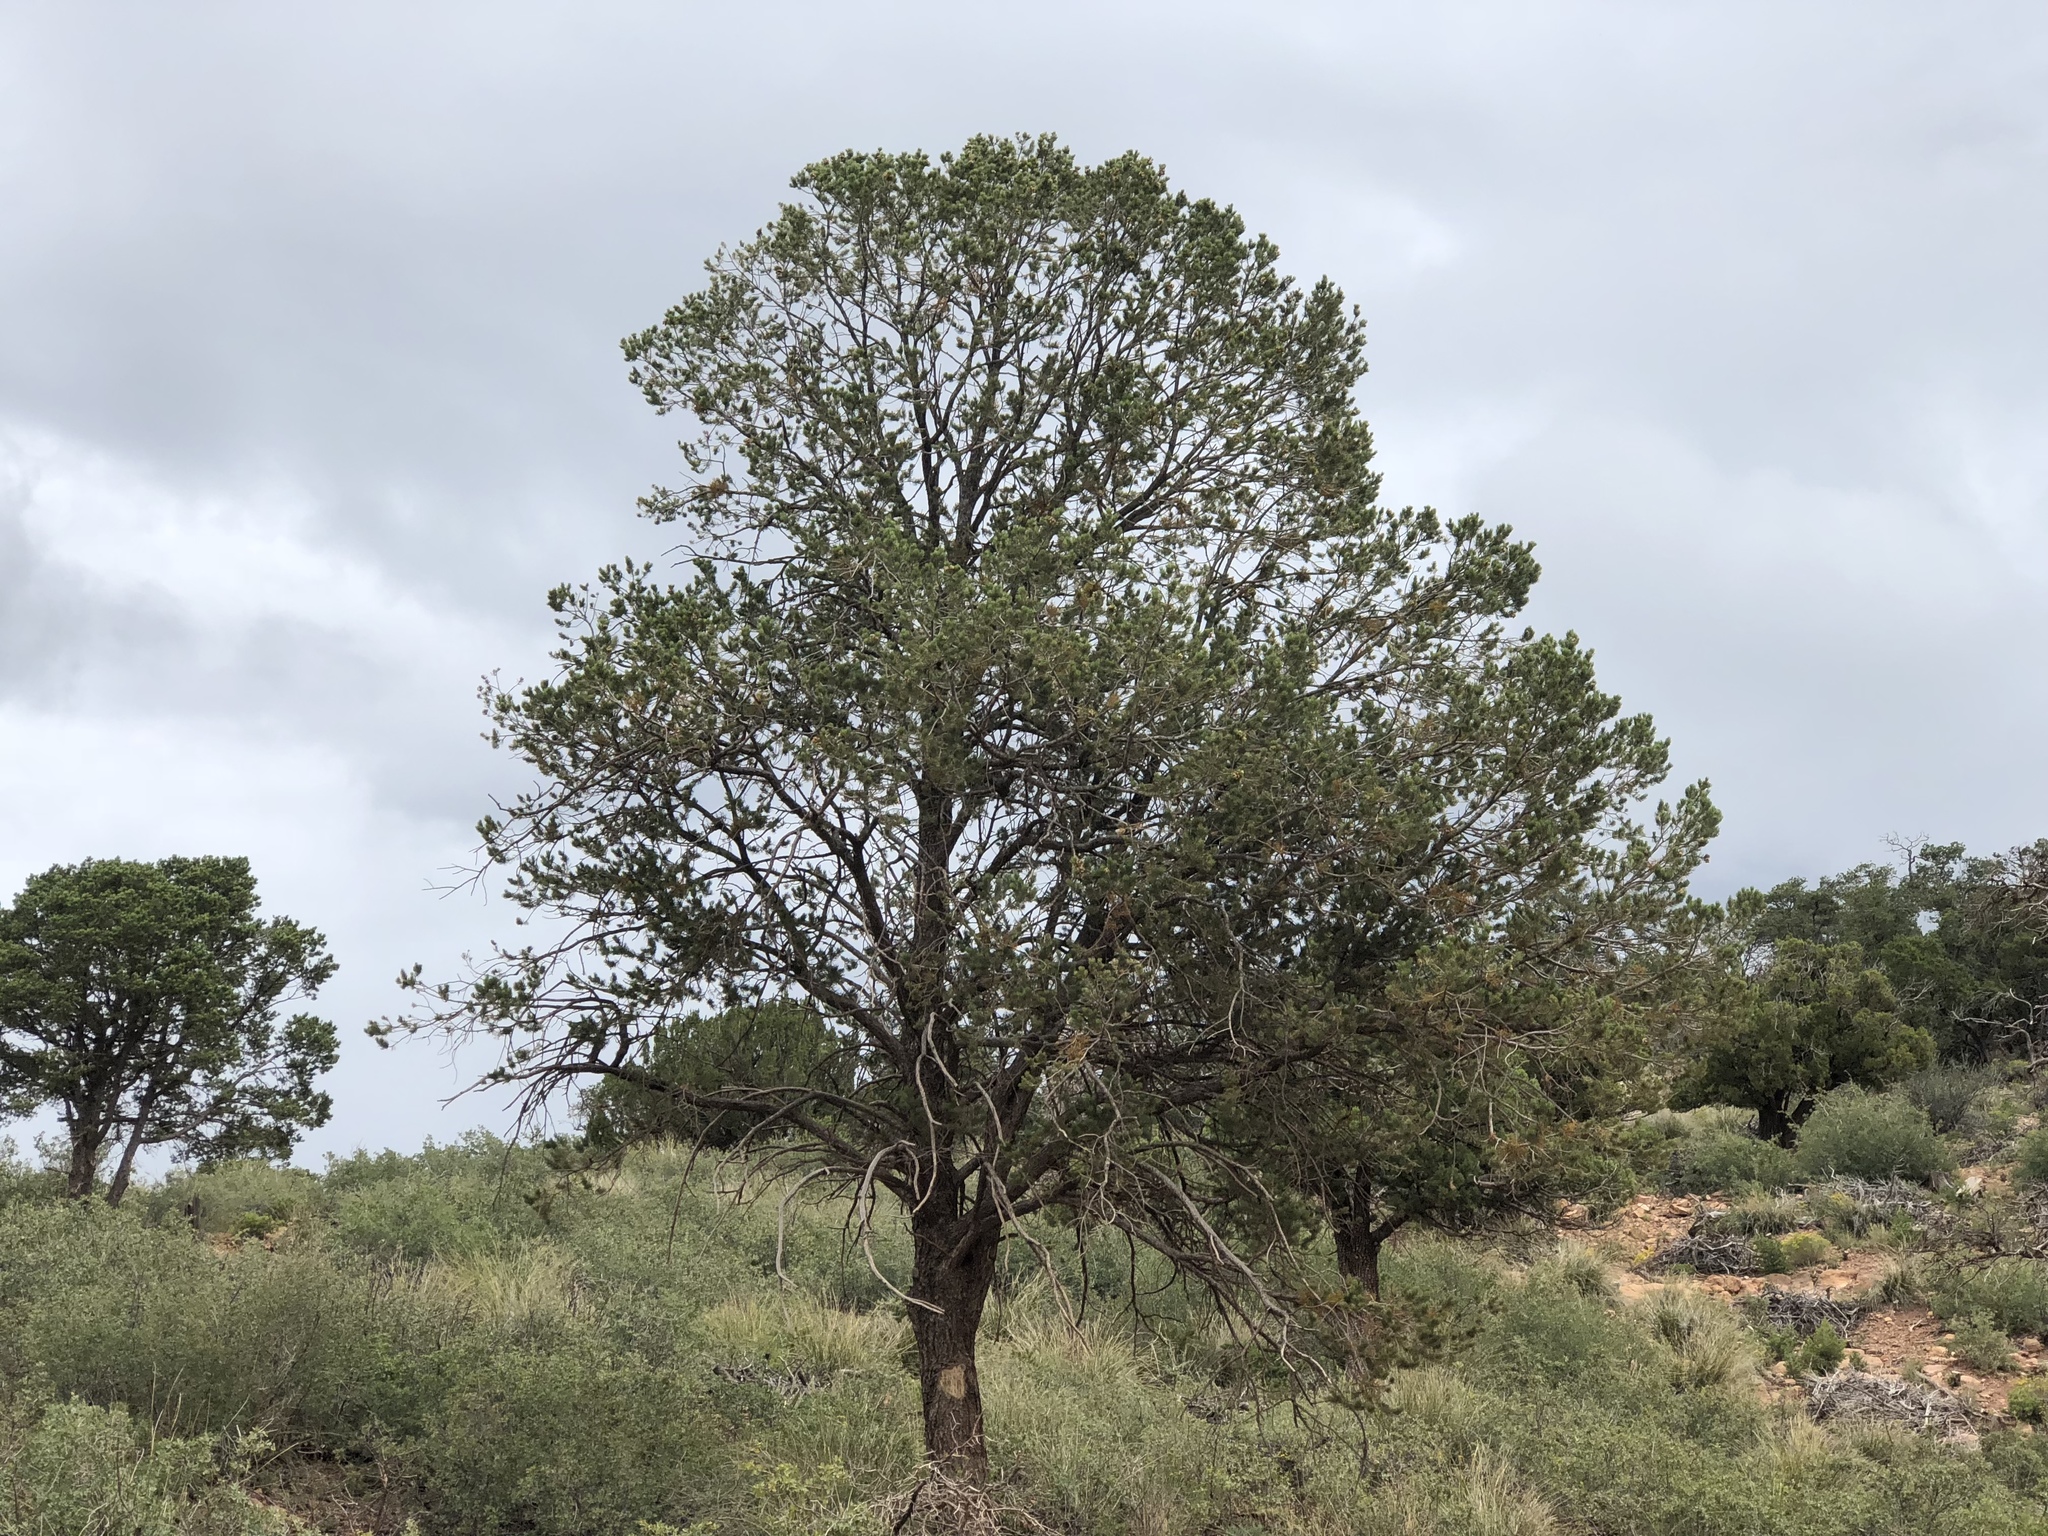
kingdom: Plantae
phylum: Tracheophyta
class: Pinopsida
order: Pinales
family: Pinaceae
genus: Pinus
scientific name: Pinus edulis
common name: Colorado pinyon
